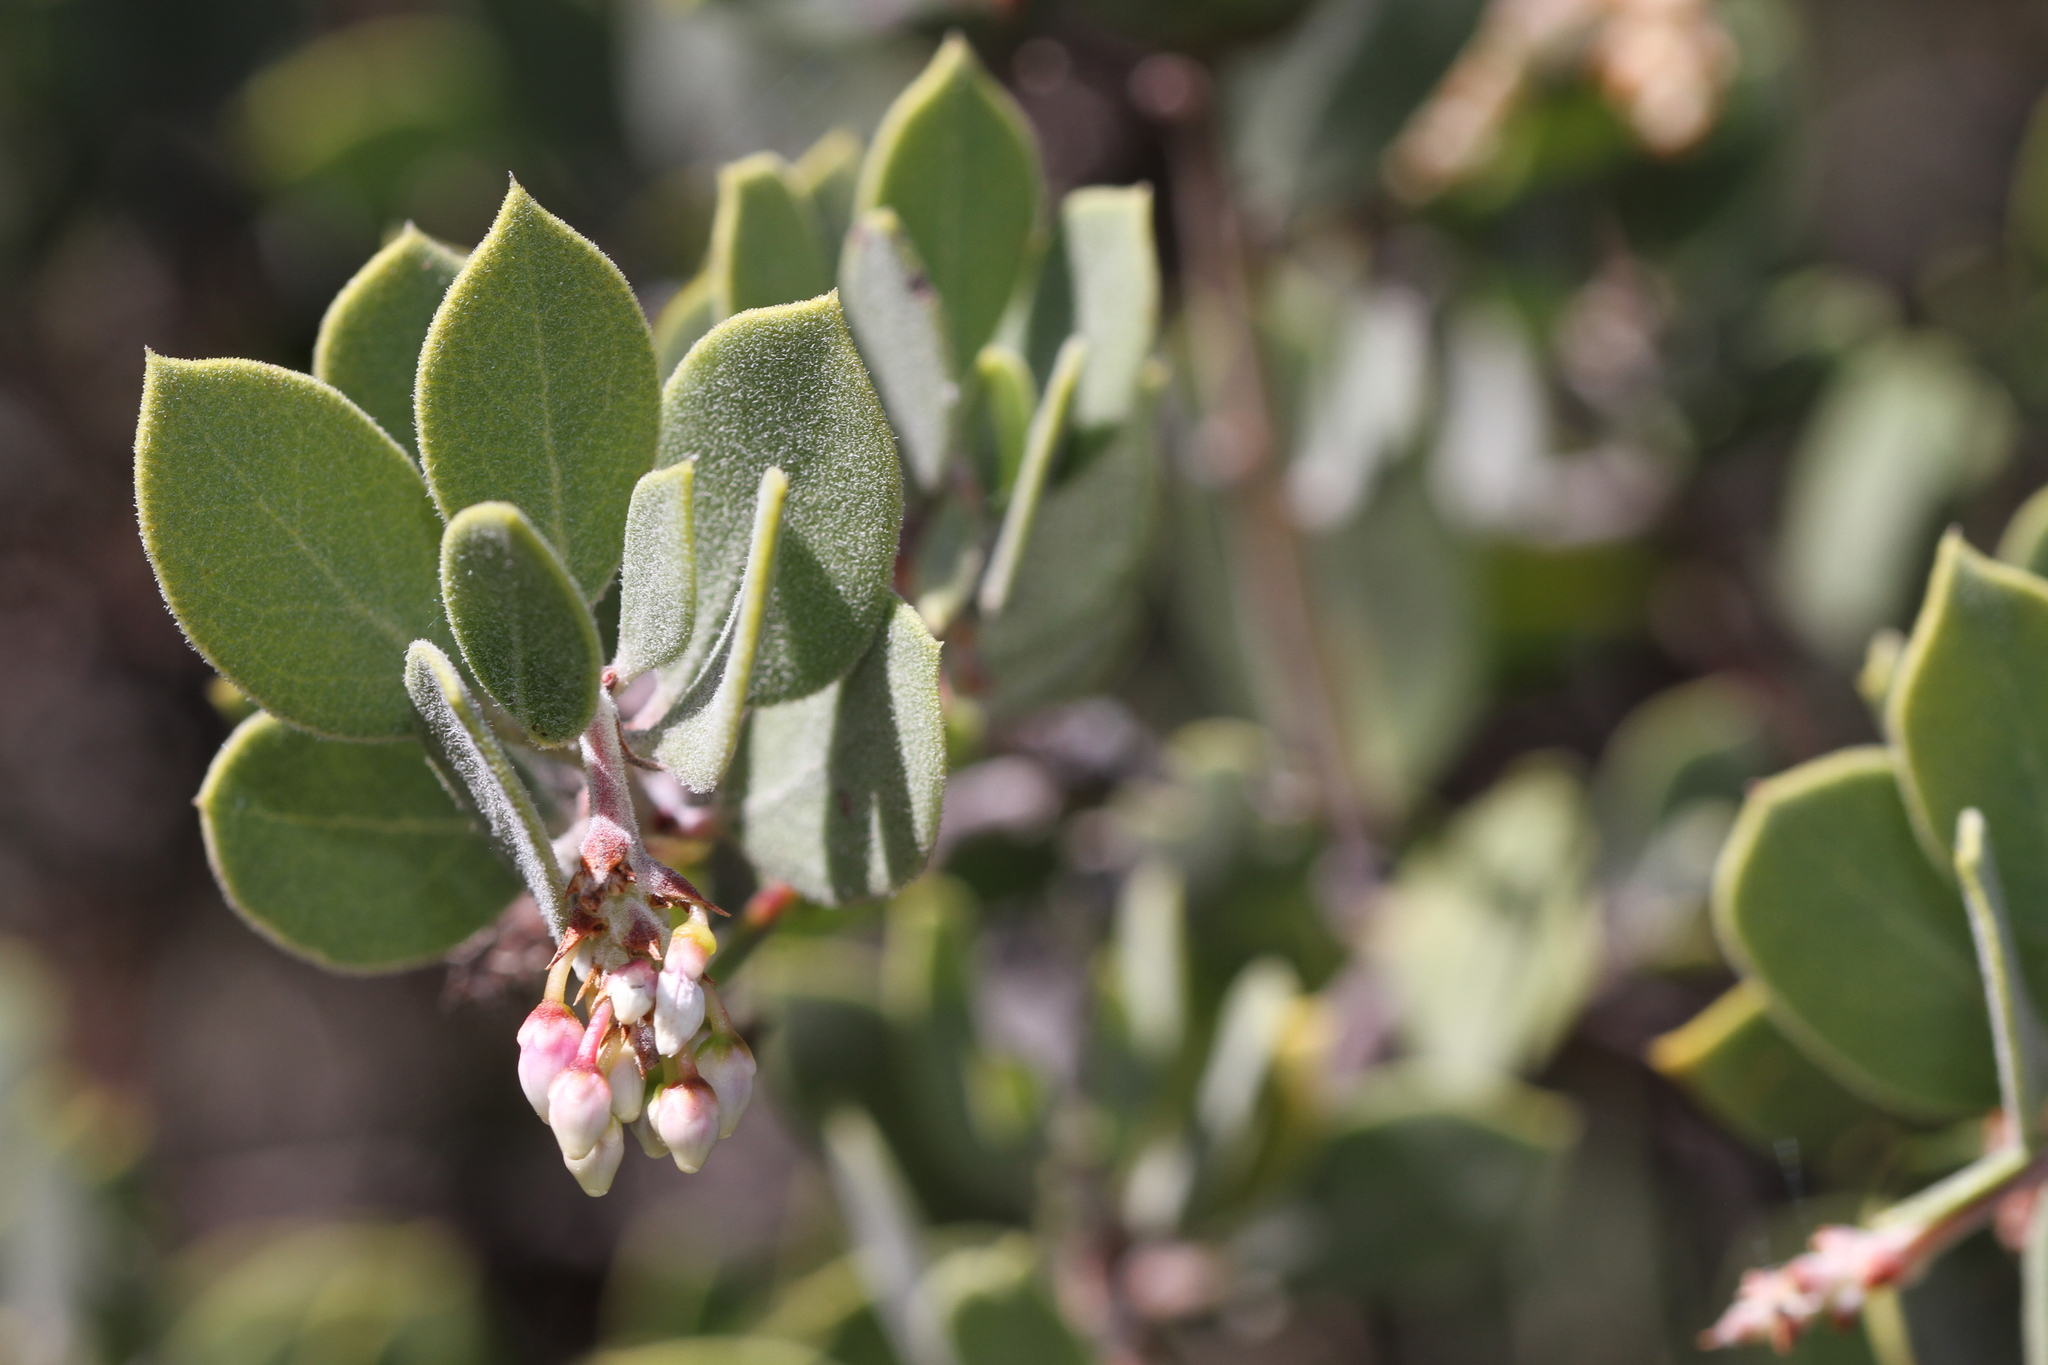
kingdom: Plantae
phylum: Tracheophyta
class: Magnoliopsida
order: Ericales
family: Ericaceae
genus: Arctostaphylos
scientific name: Arctostaphylos montana
